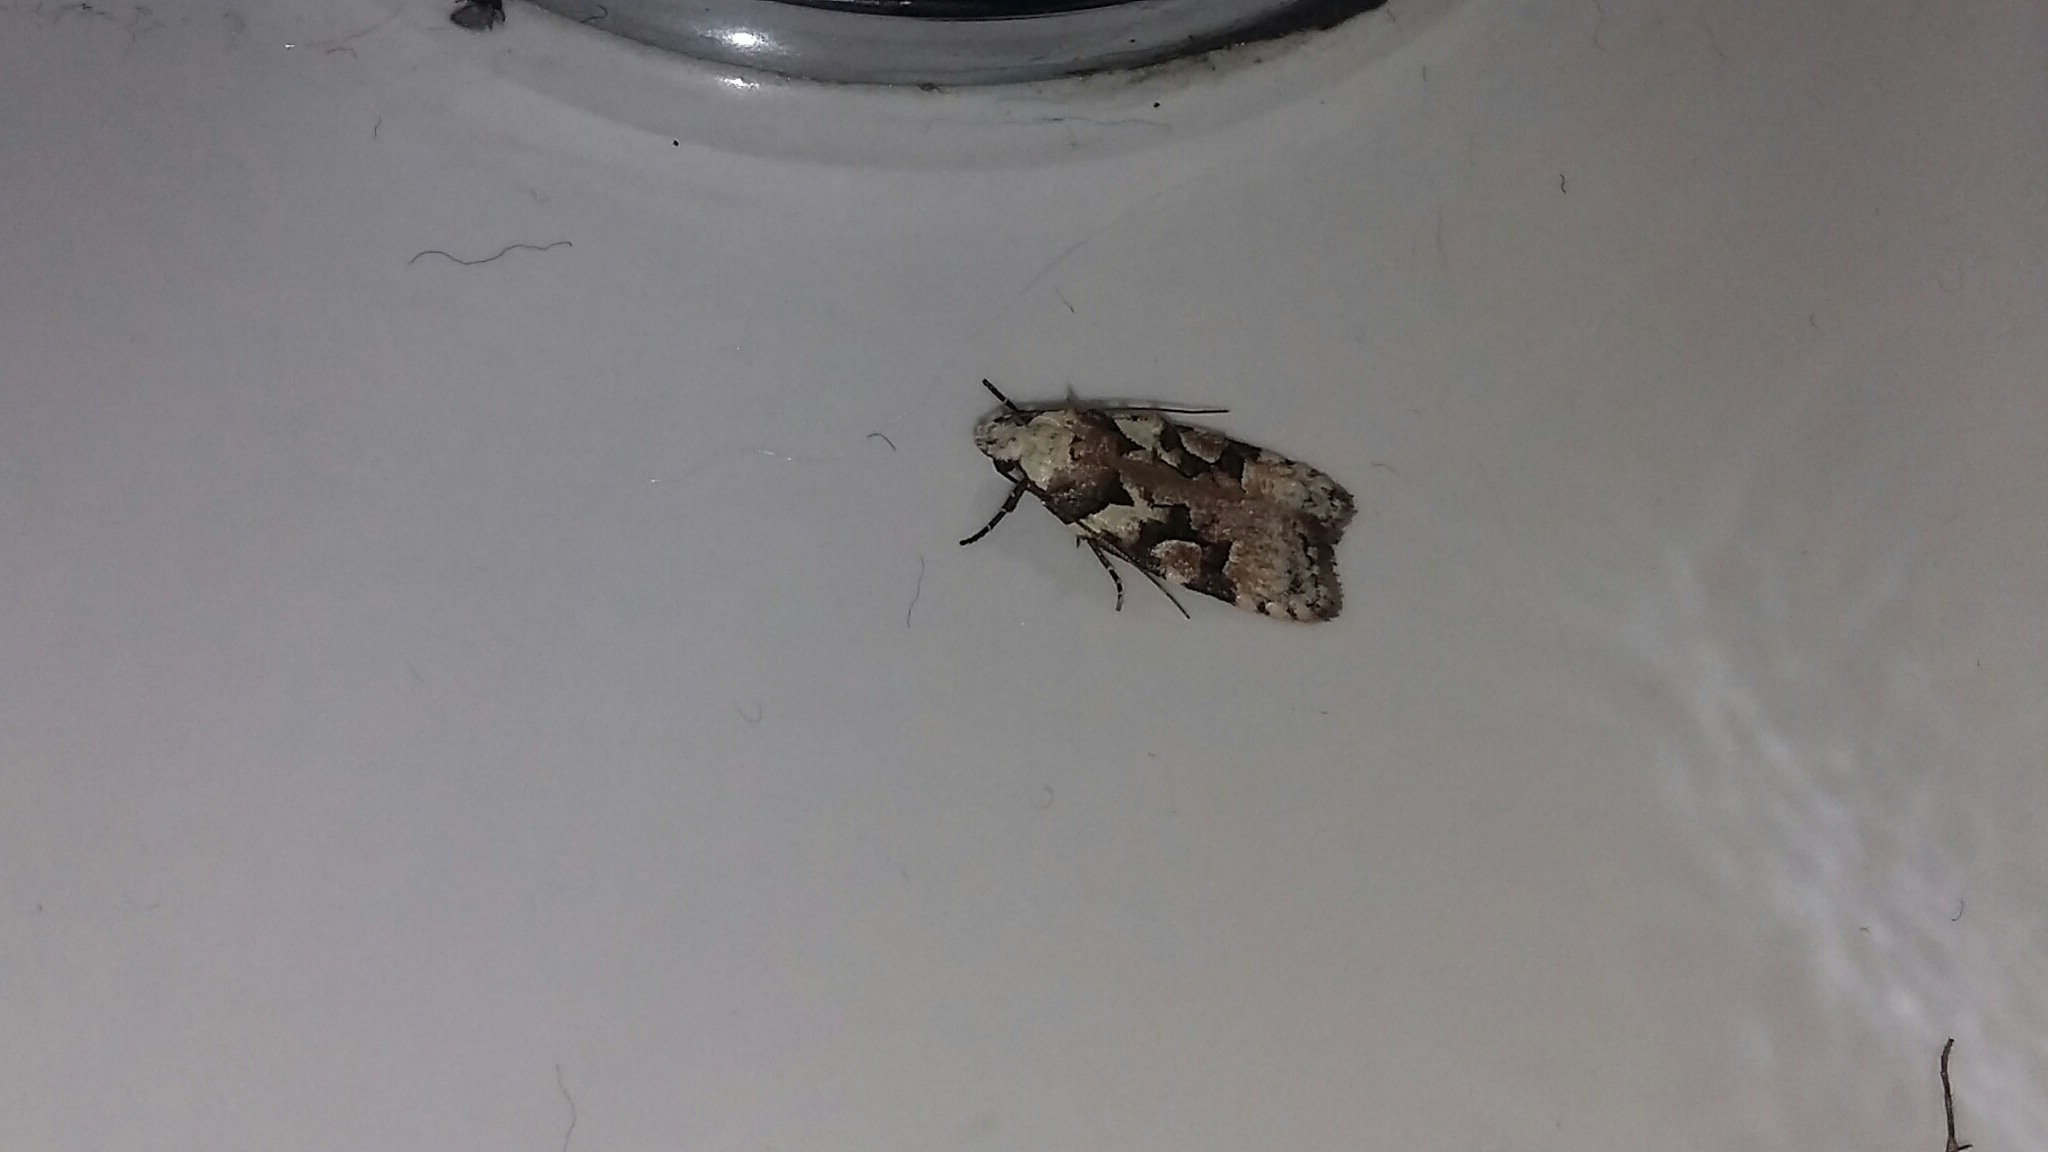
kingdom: Animalia
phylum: Arthropoda
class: Insecta
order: Lepidoptera
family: Oecophoridae
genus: Izatha
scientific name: Izatha epiphanes
